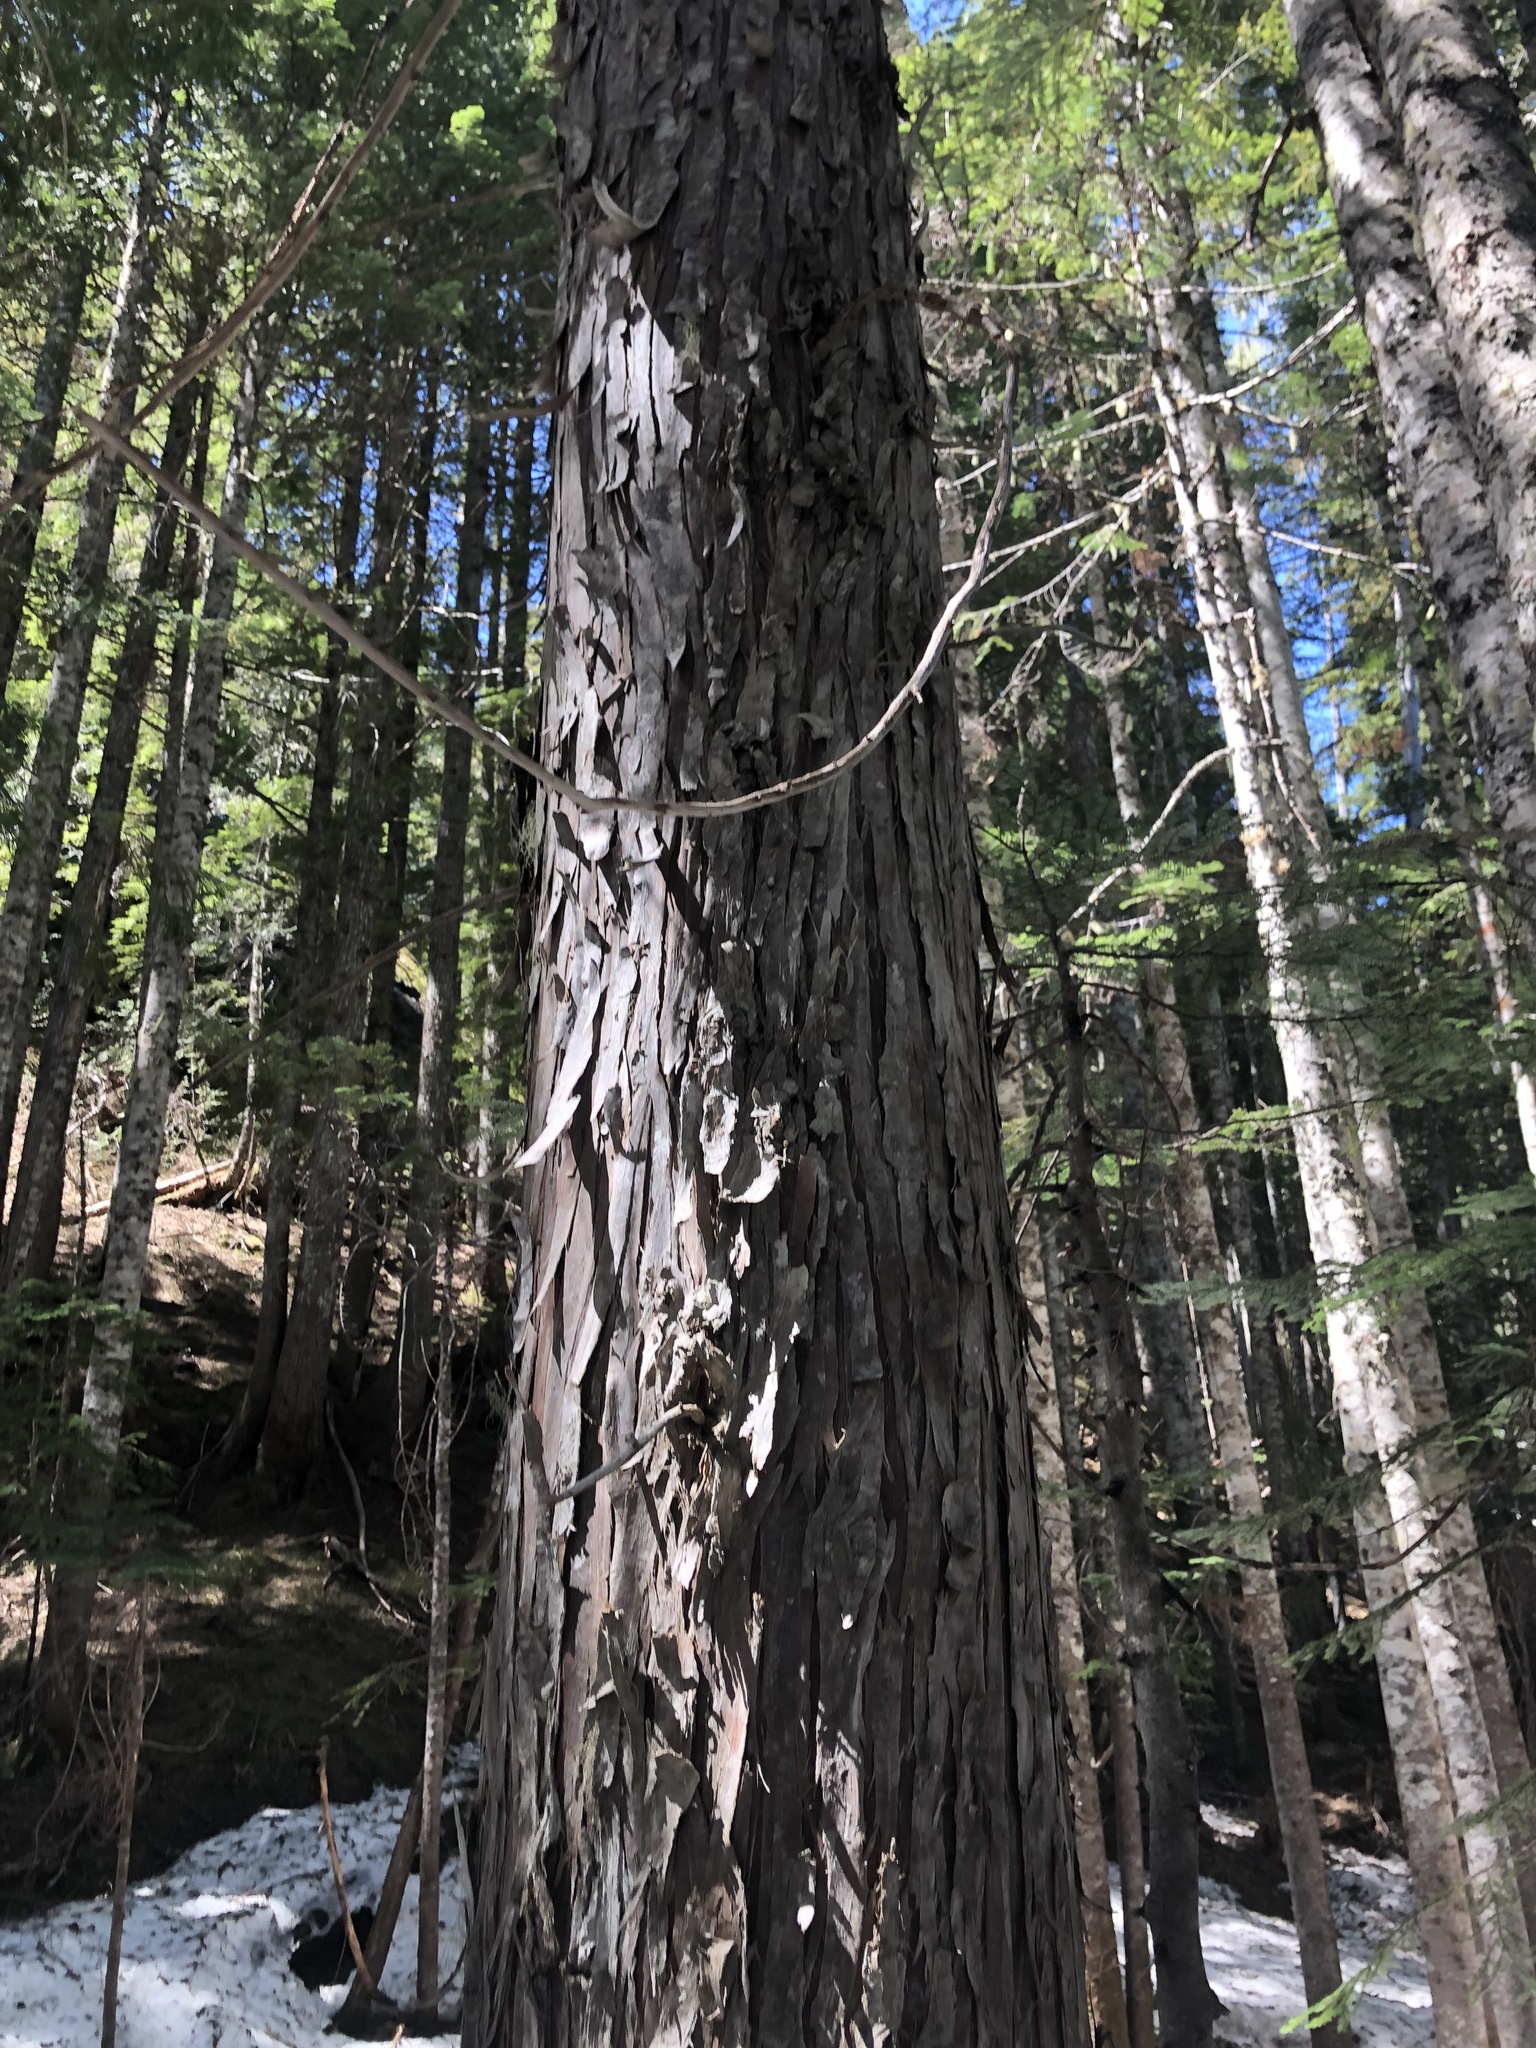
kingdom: Plantae
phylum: Tracheophyta
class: Pinopsida
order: Pinales
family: Cupressaceae
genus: Xanthocyparis
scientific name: Xanthocyparis nootkatensis
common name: Nootka cypress
